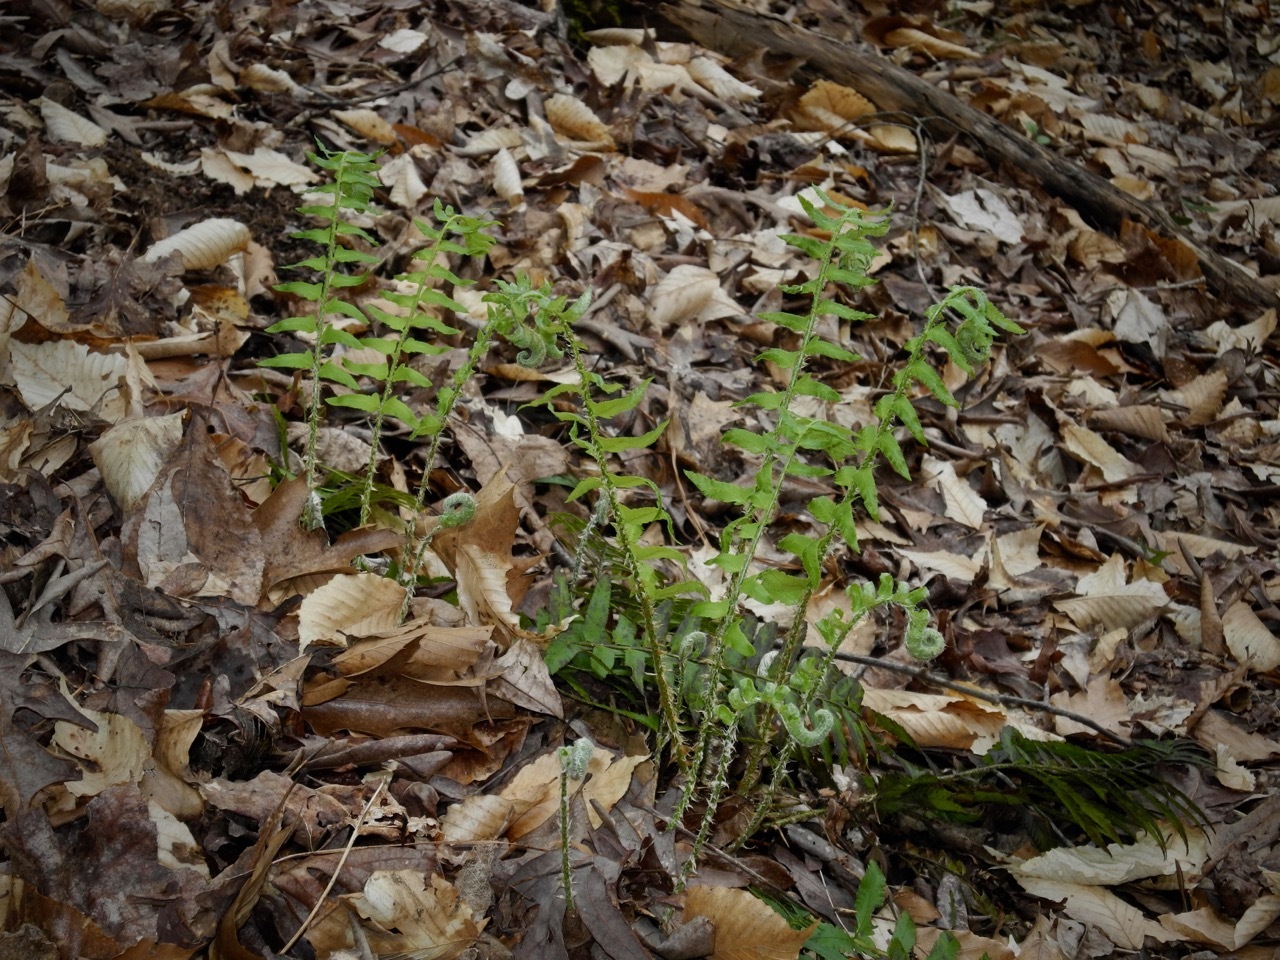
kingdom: Plantae
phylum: Tracheophyta
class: Polypodiopsida
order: Polypodiales
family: Dryopteridaceae
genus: Polystichum
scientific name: Polystichum acrostichoides
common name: Christmas fern
